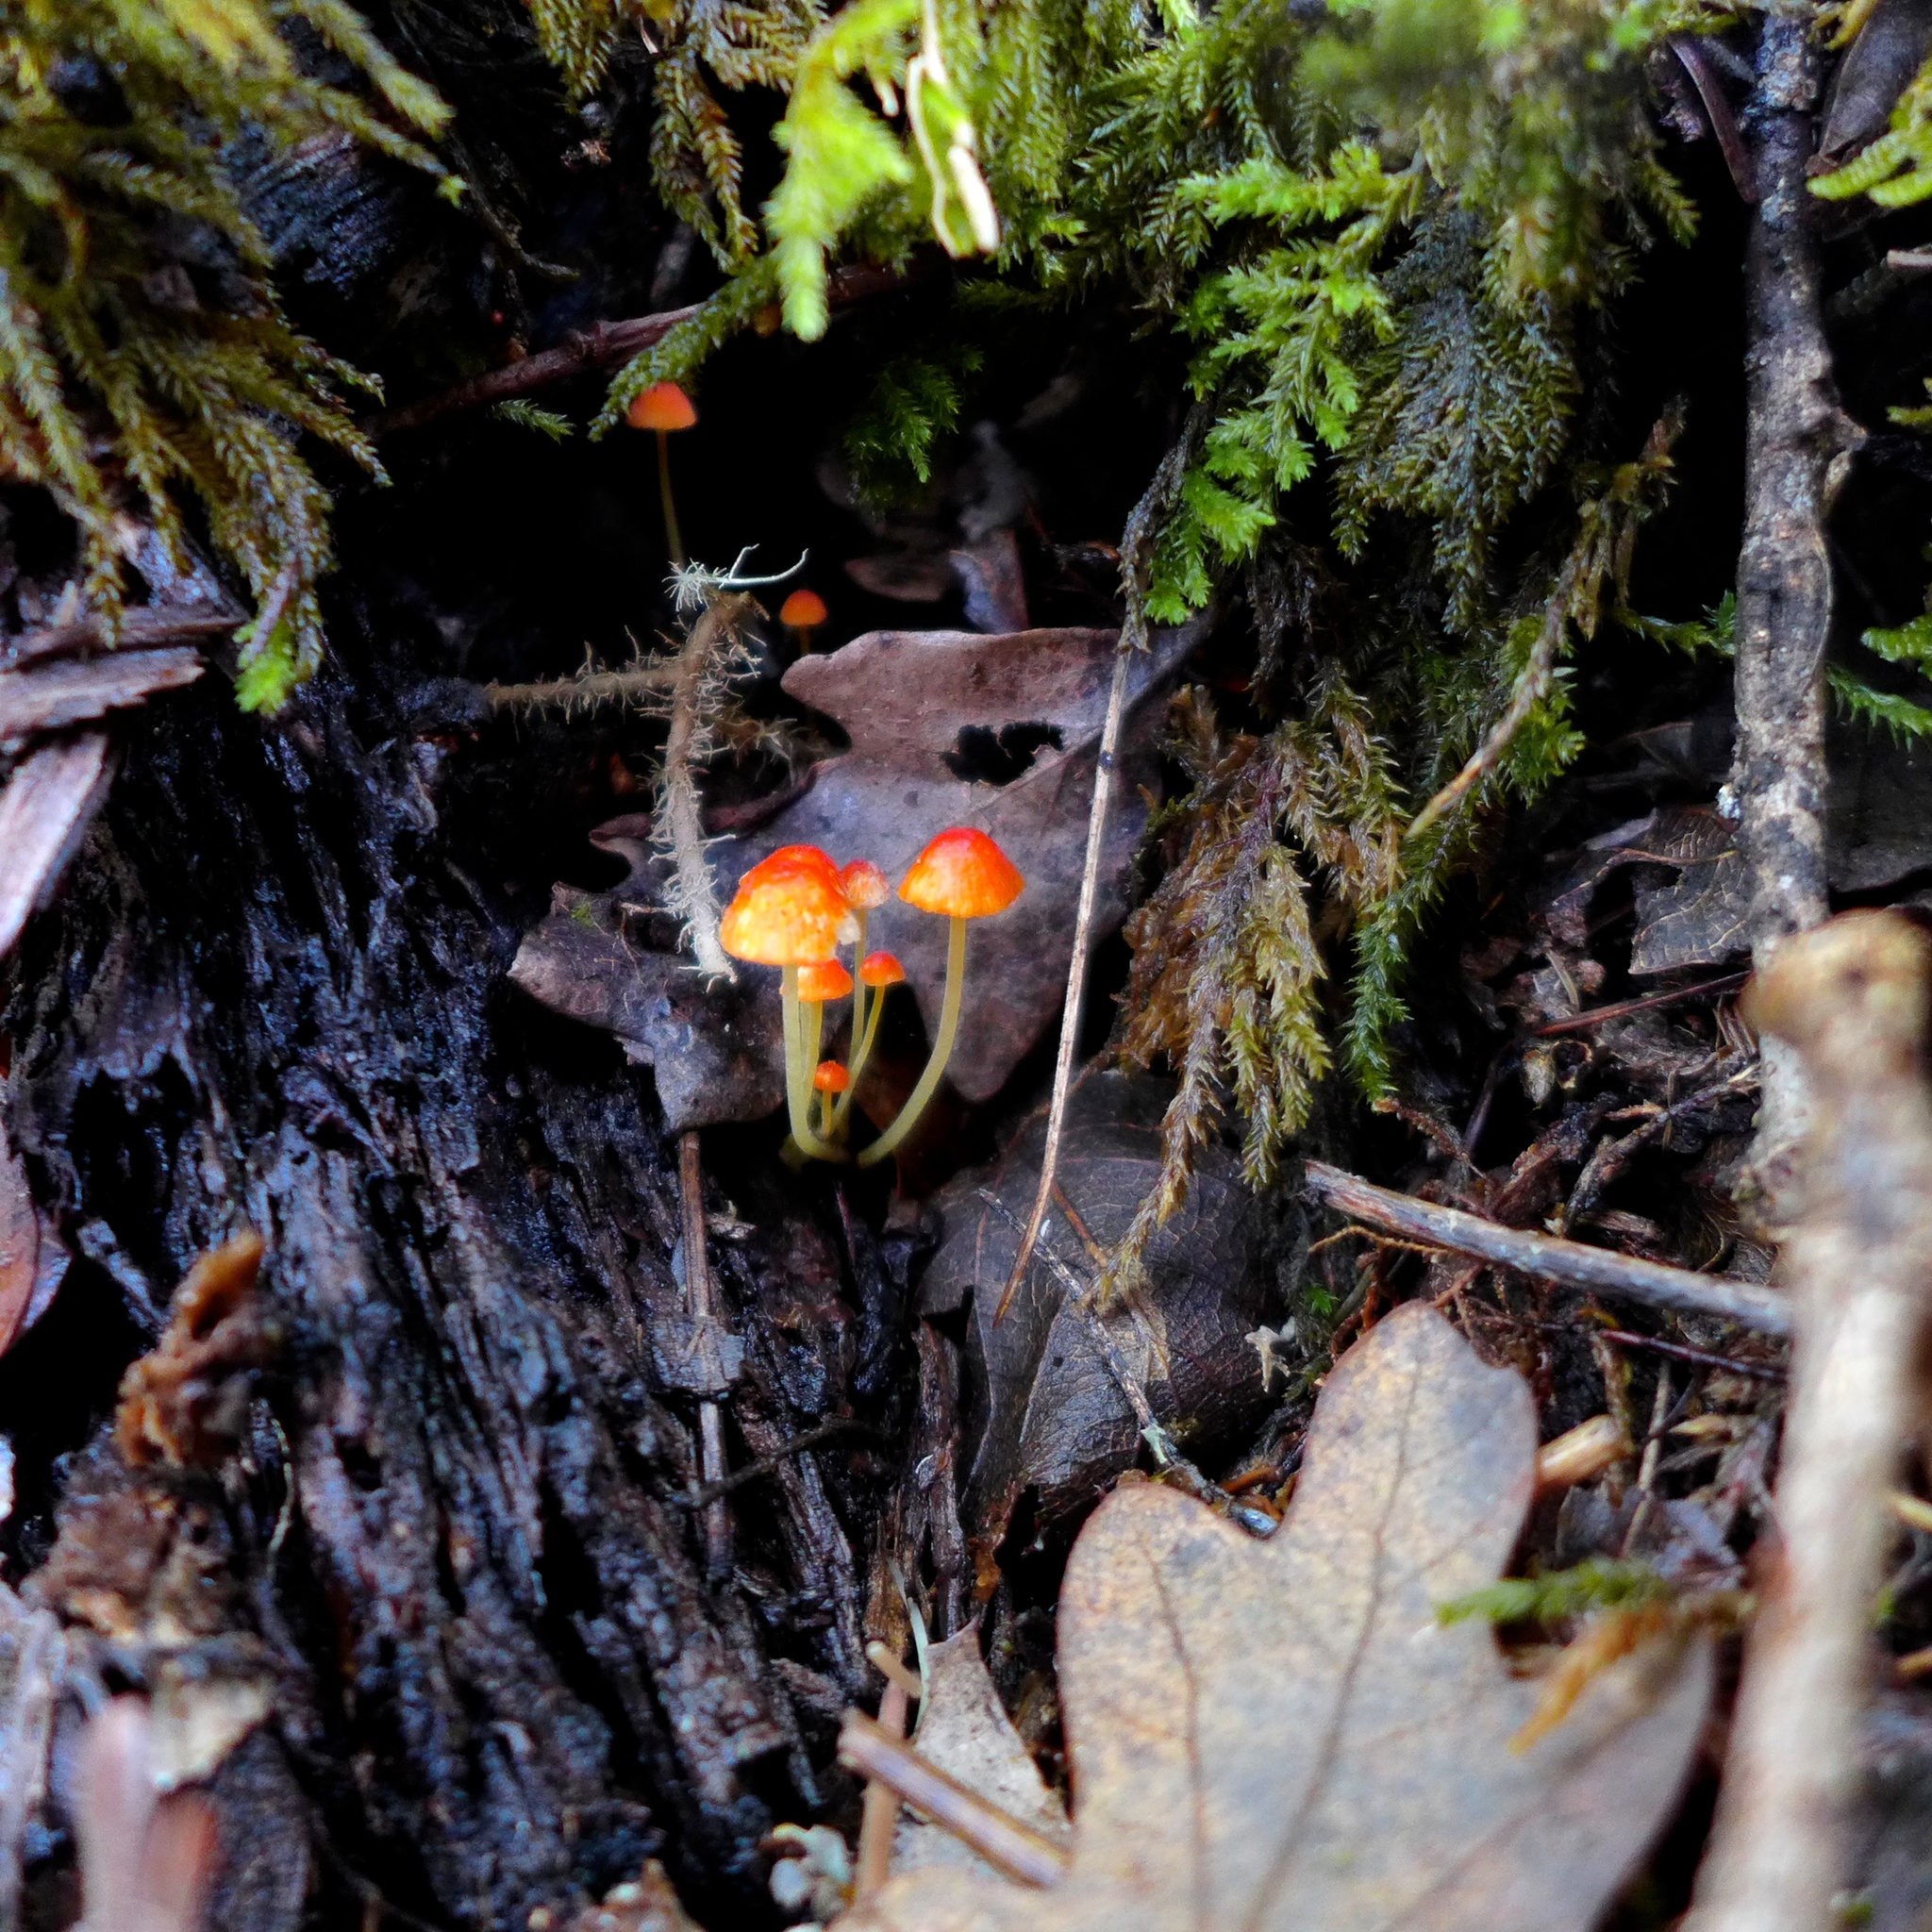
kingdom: Fungi
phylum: Basidiomycota
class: Agaricomycetes
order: Agaricales
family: Mycenaceae
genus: Mycena
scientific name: Mycena acicula
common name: Orange bonnet
